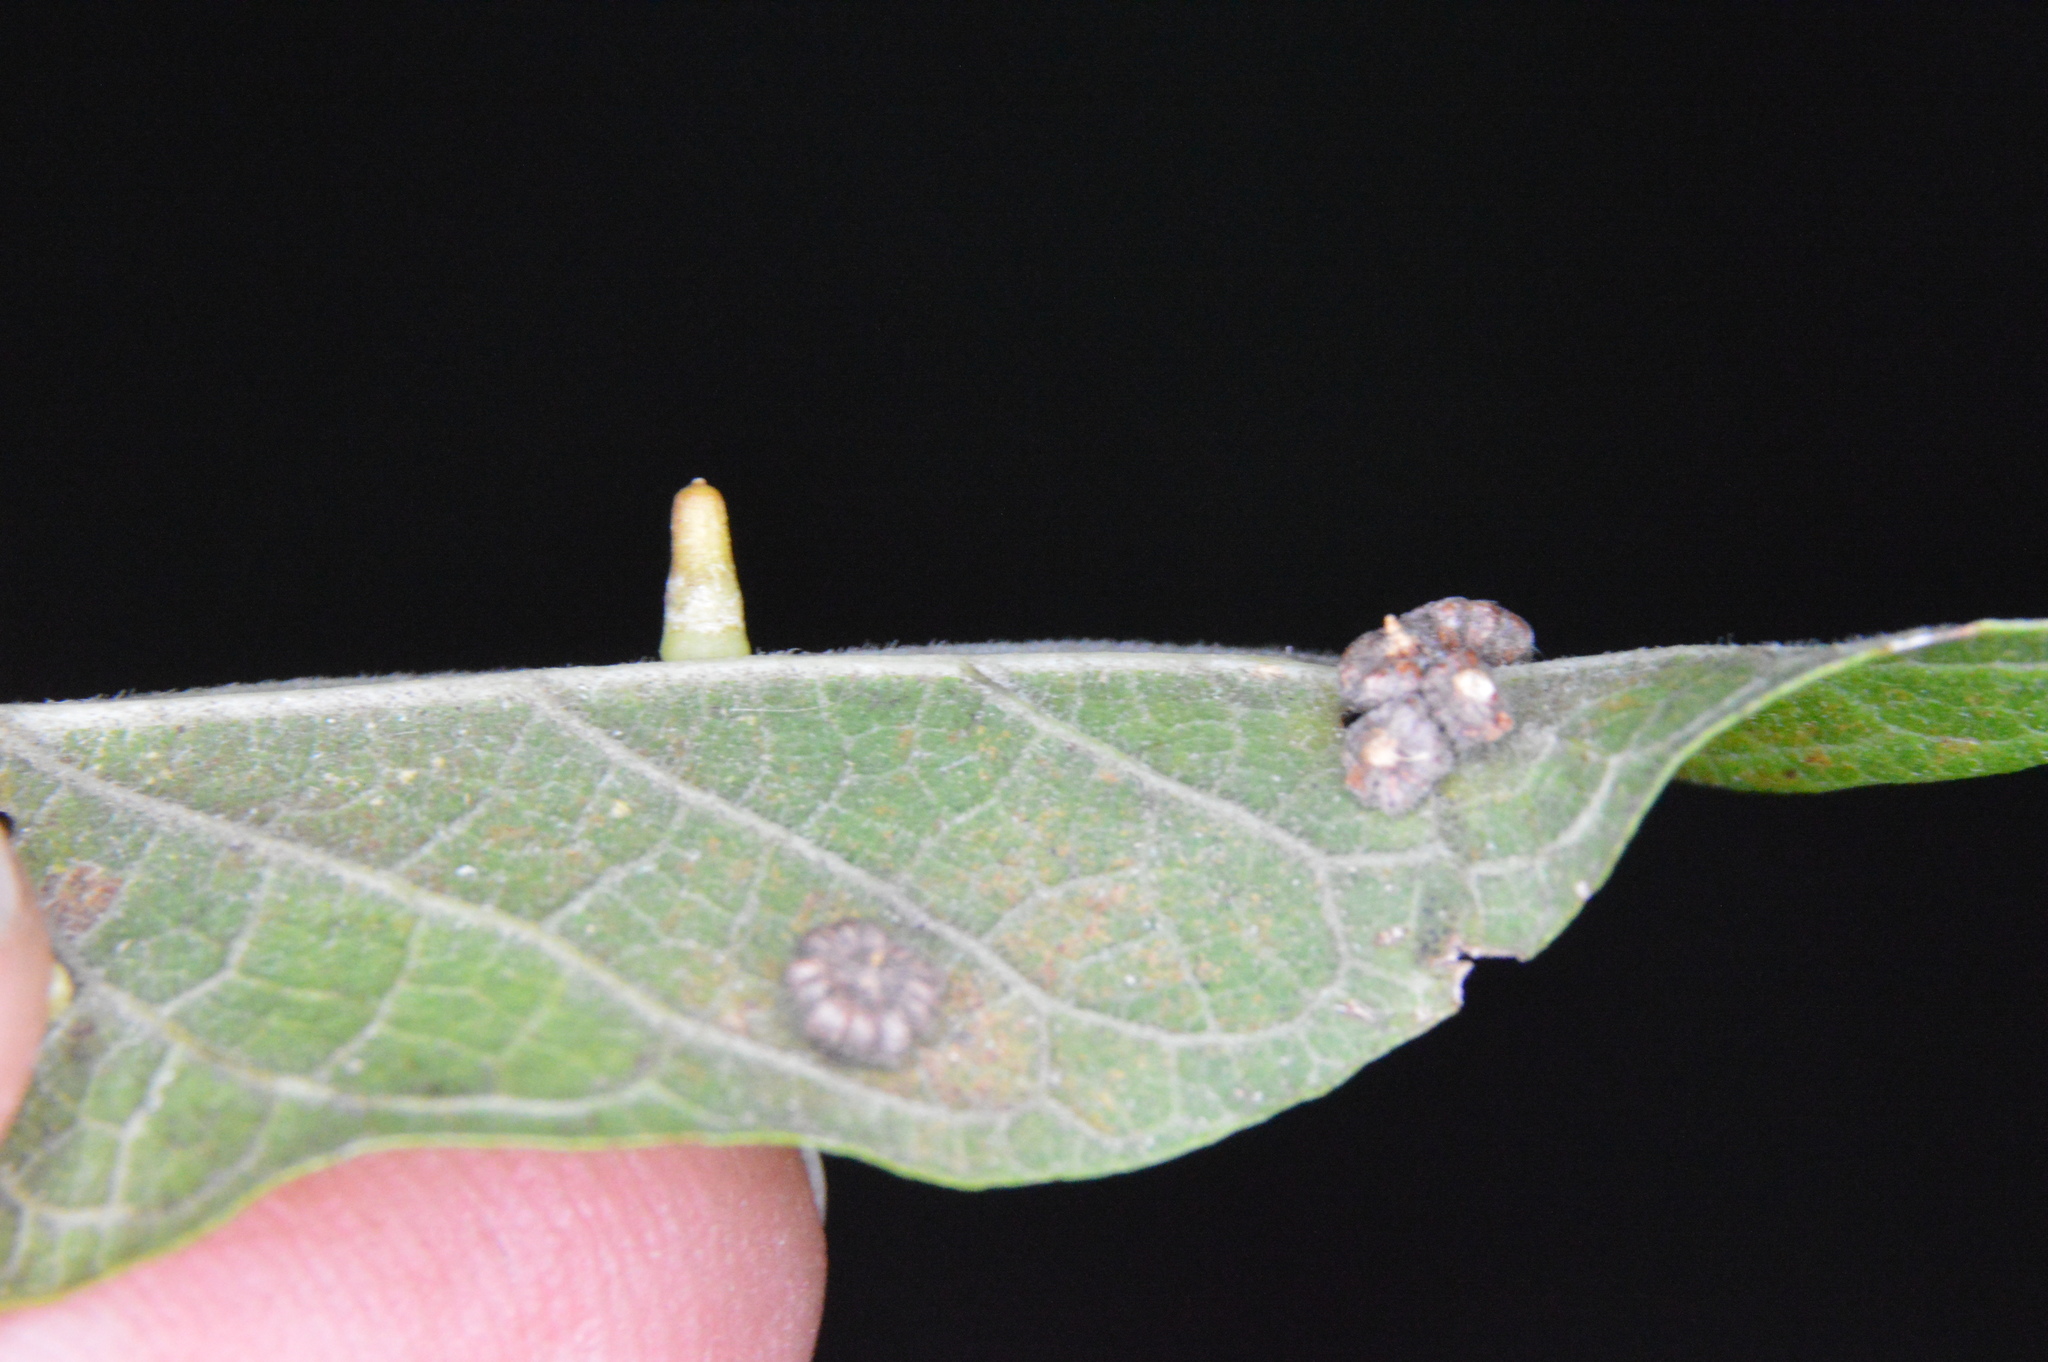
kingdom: Animalia
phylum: Arthropoda
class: Insecta
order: Diptera
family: Cecidomyiidae
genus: Celticecis
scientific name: Celticecis aciculata
